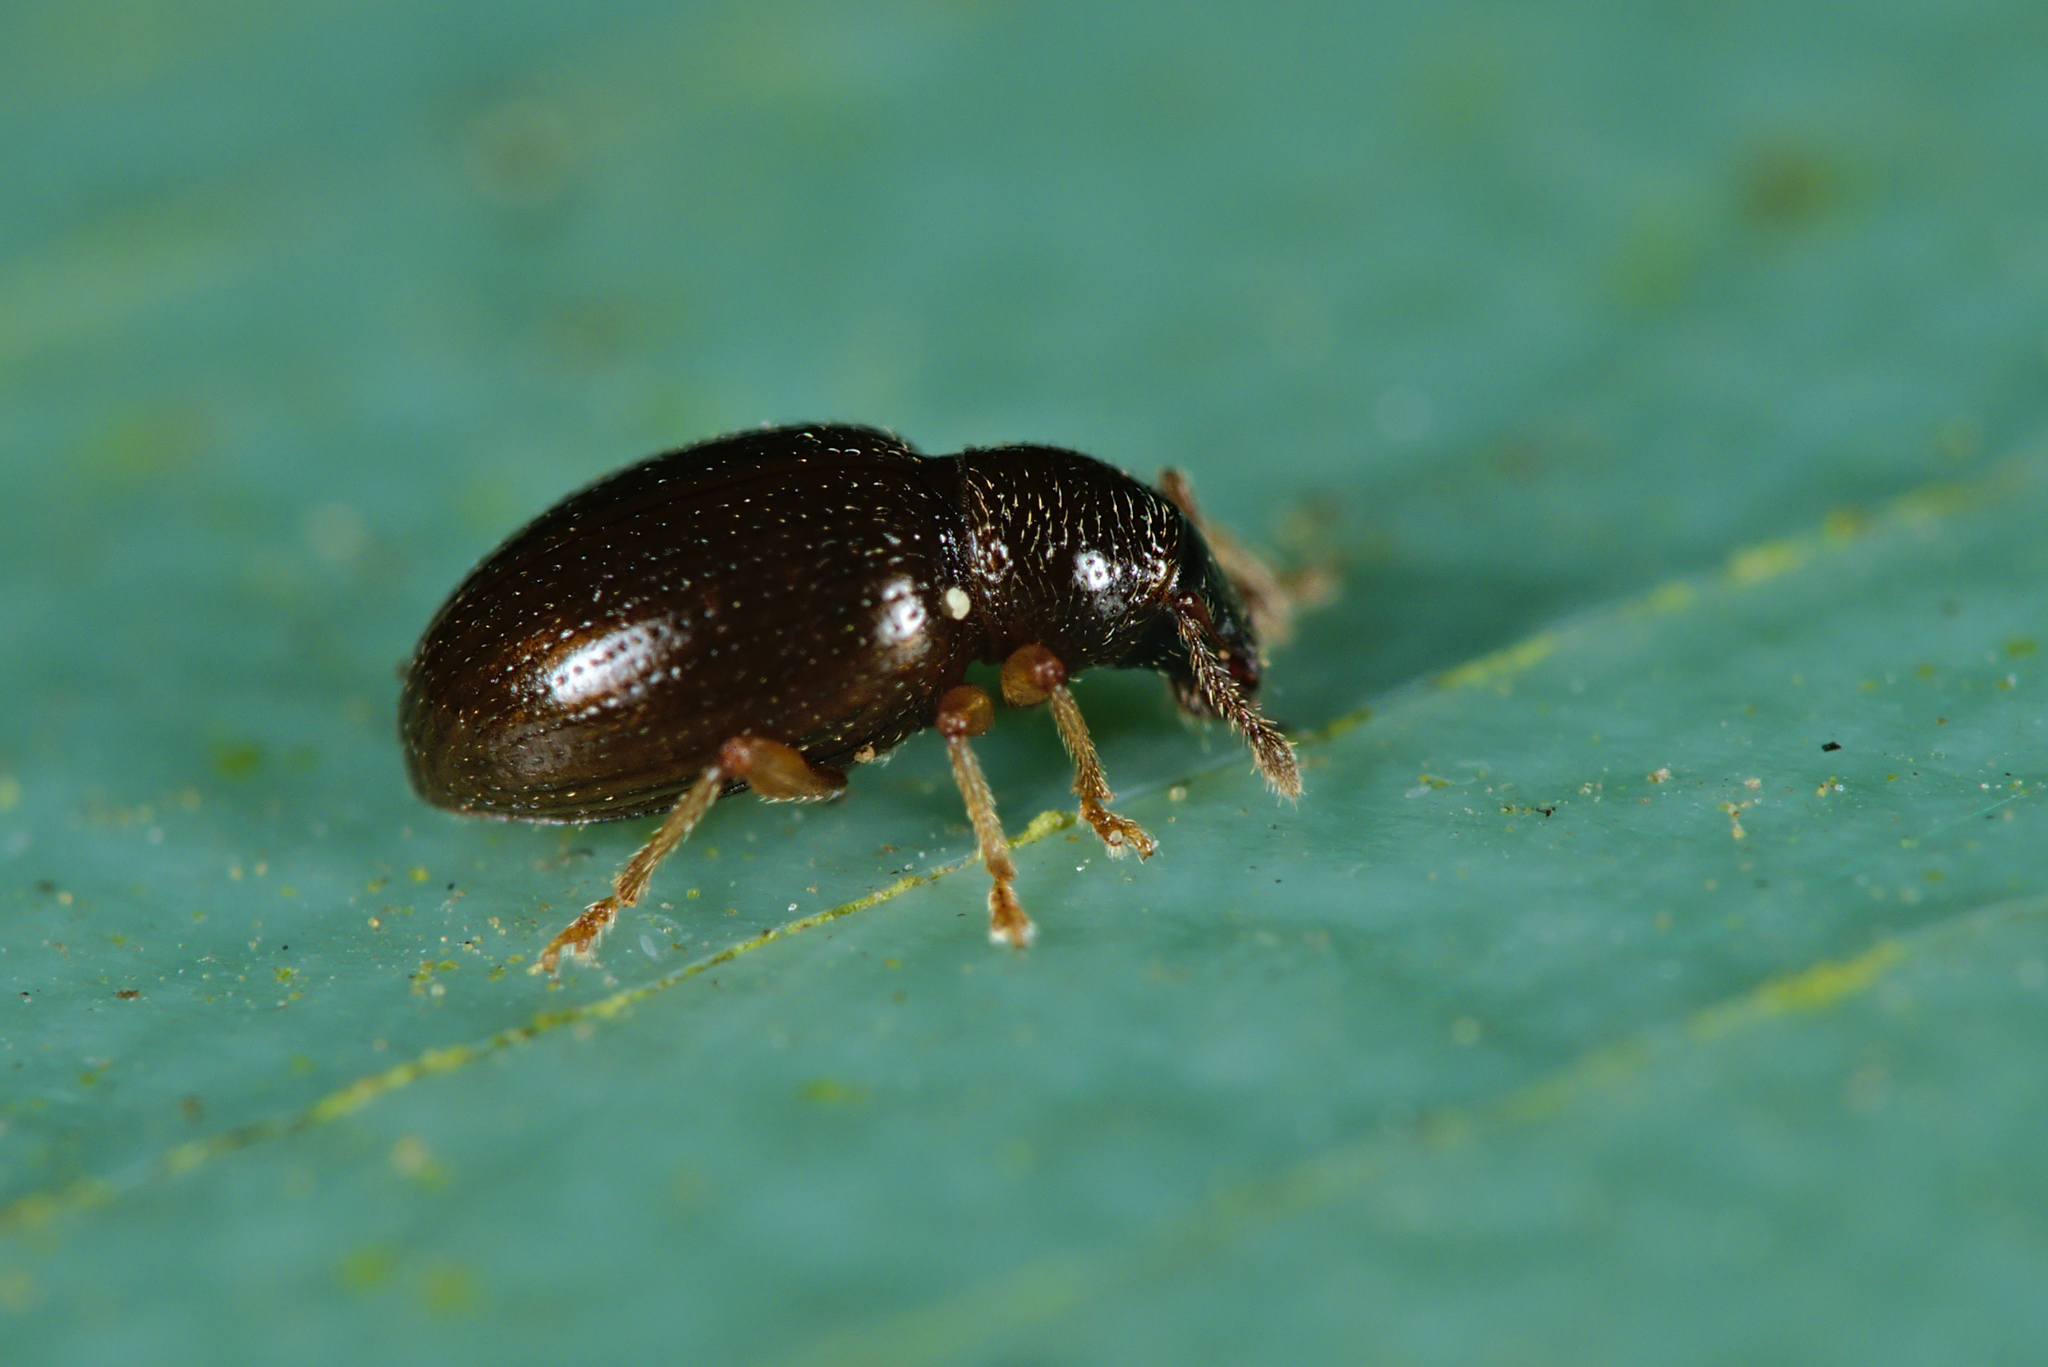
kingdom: Animalia
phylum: Arthropoda
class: Insecta
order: Coleoptera
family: Curculionidae
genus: Exomias
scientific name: Exomias araneiformis
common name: Spider weevil
